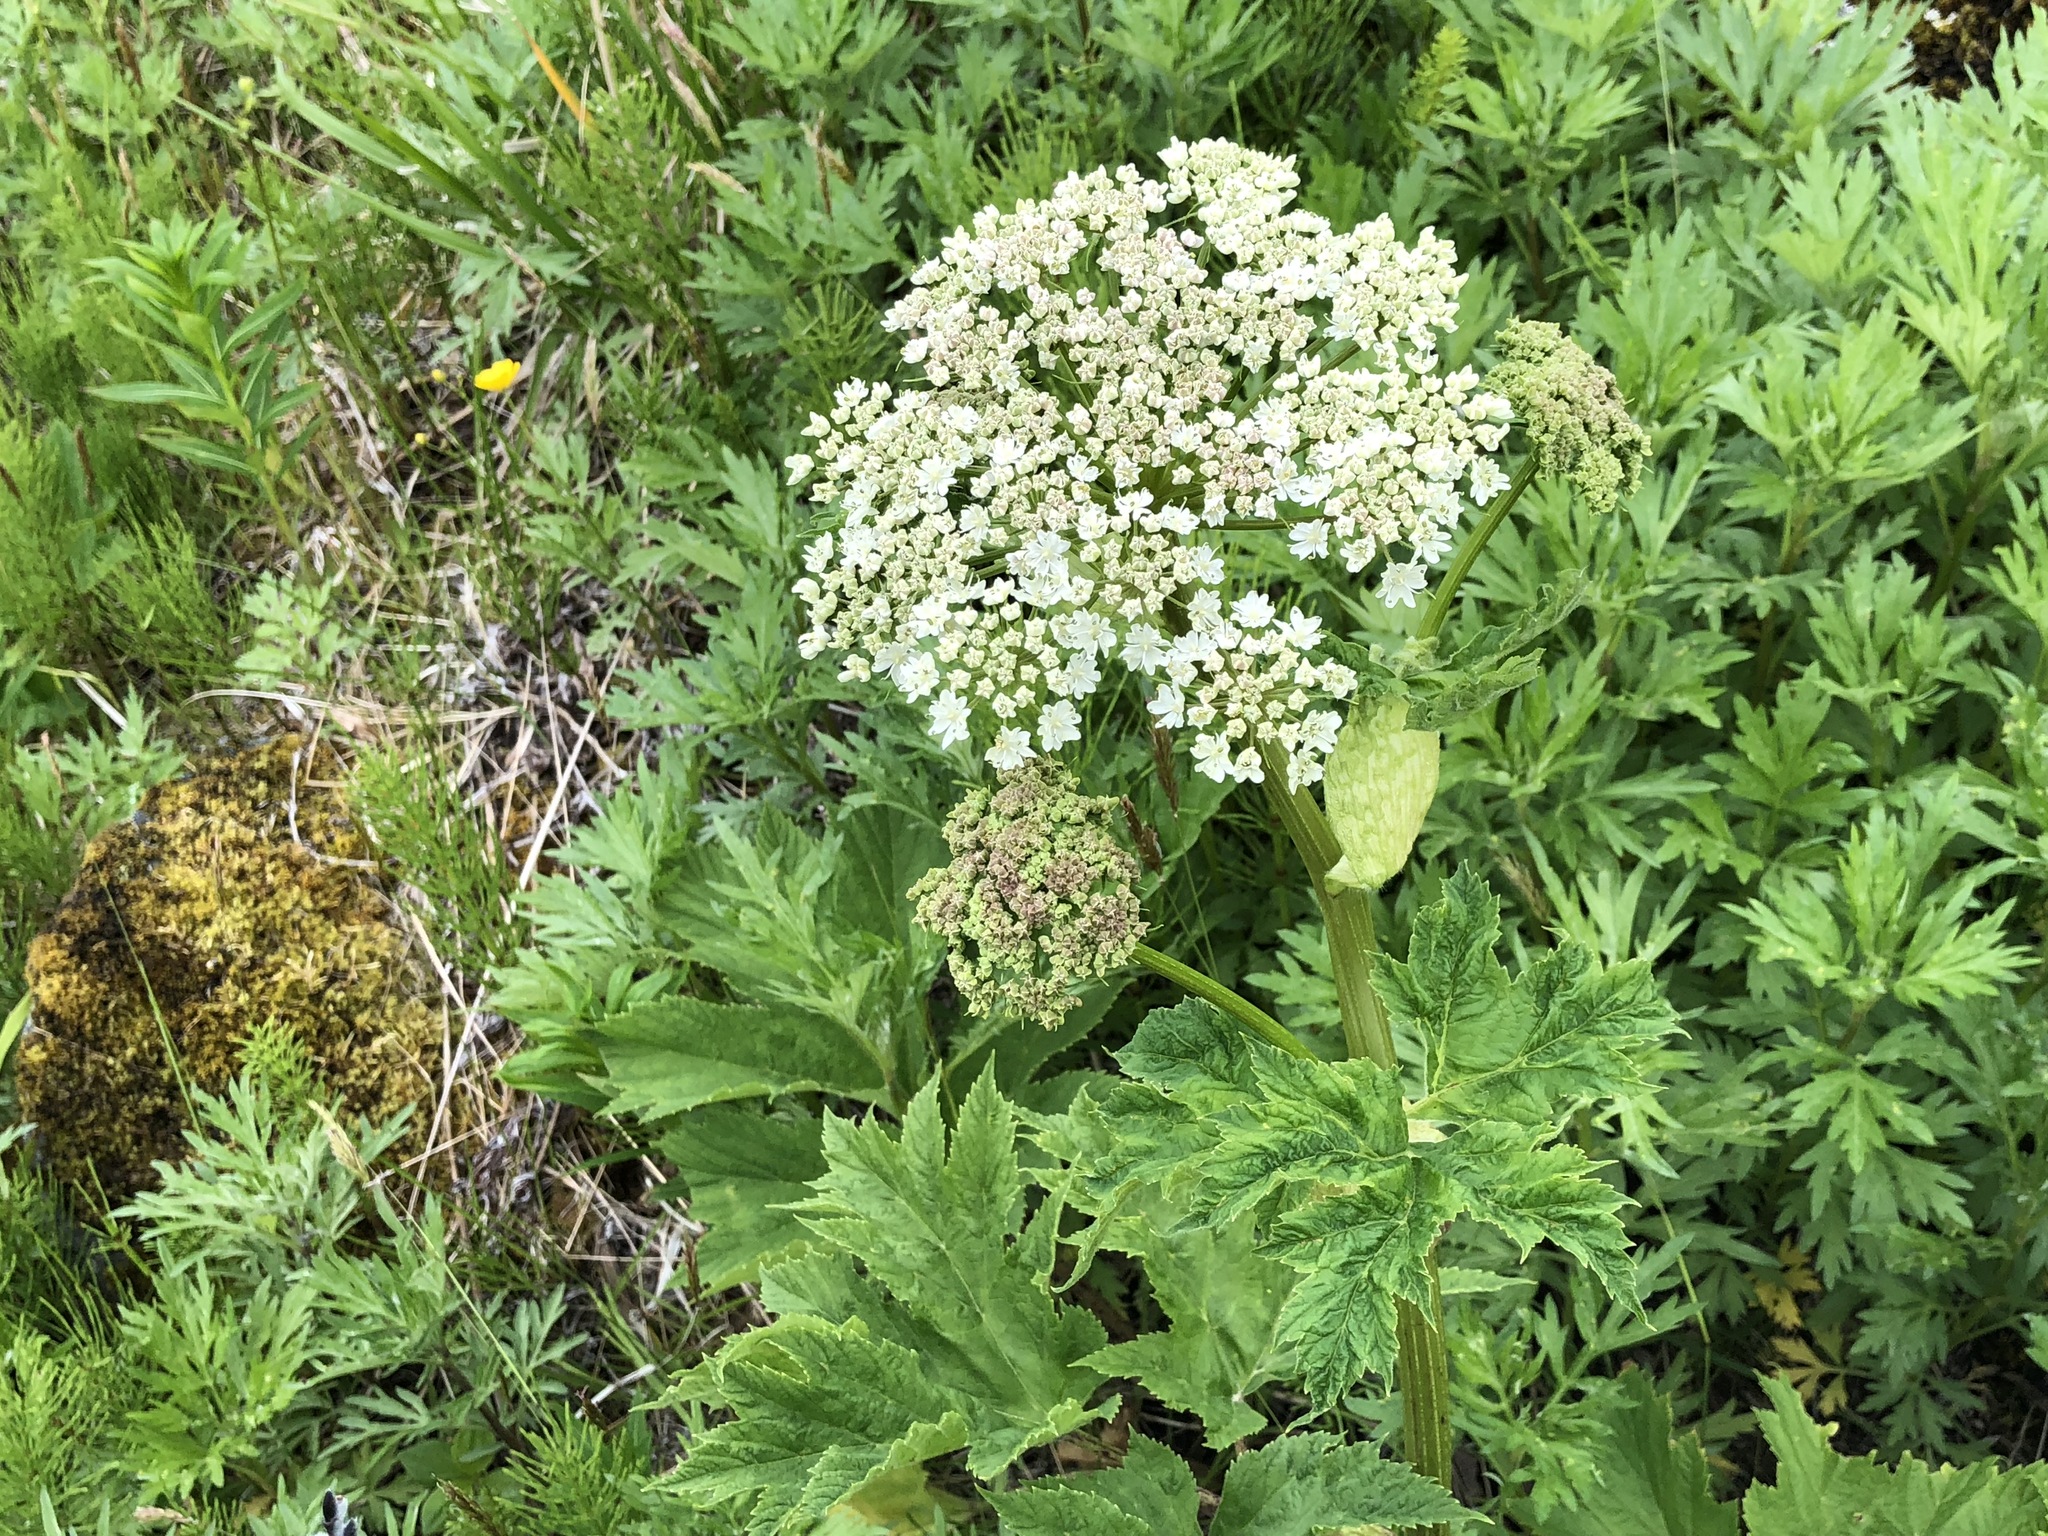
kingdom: Plantae
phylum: Tracheophyta
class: Magnoliopsida
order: Apiales
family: Apiaceae
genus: Heracleum
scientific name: Heracleum maximum
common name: American cow parsnip
